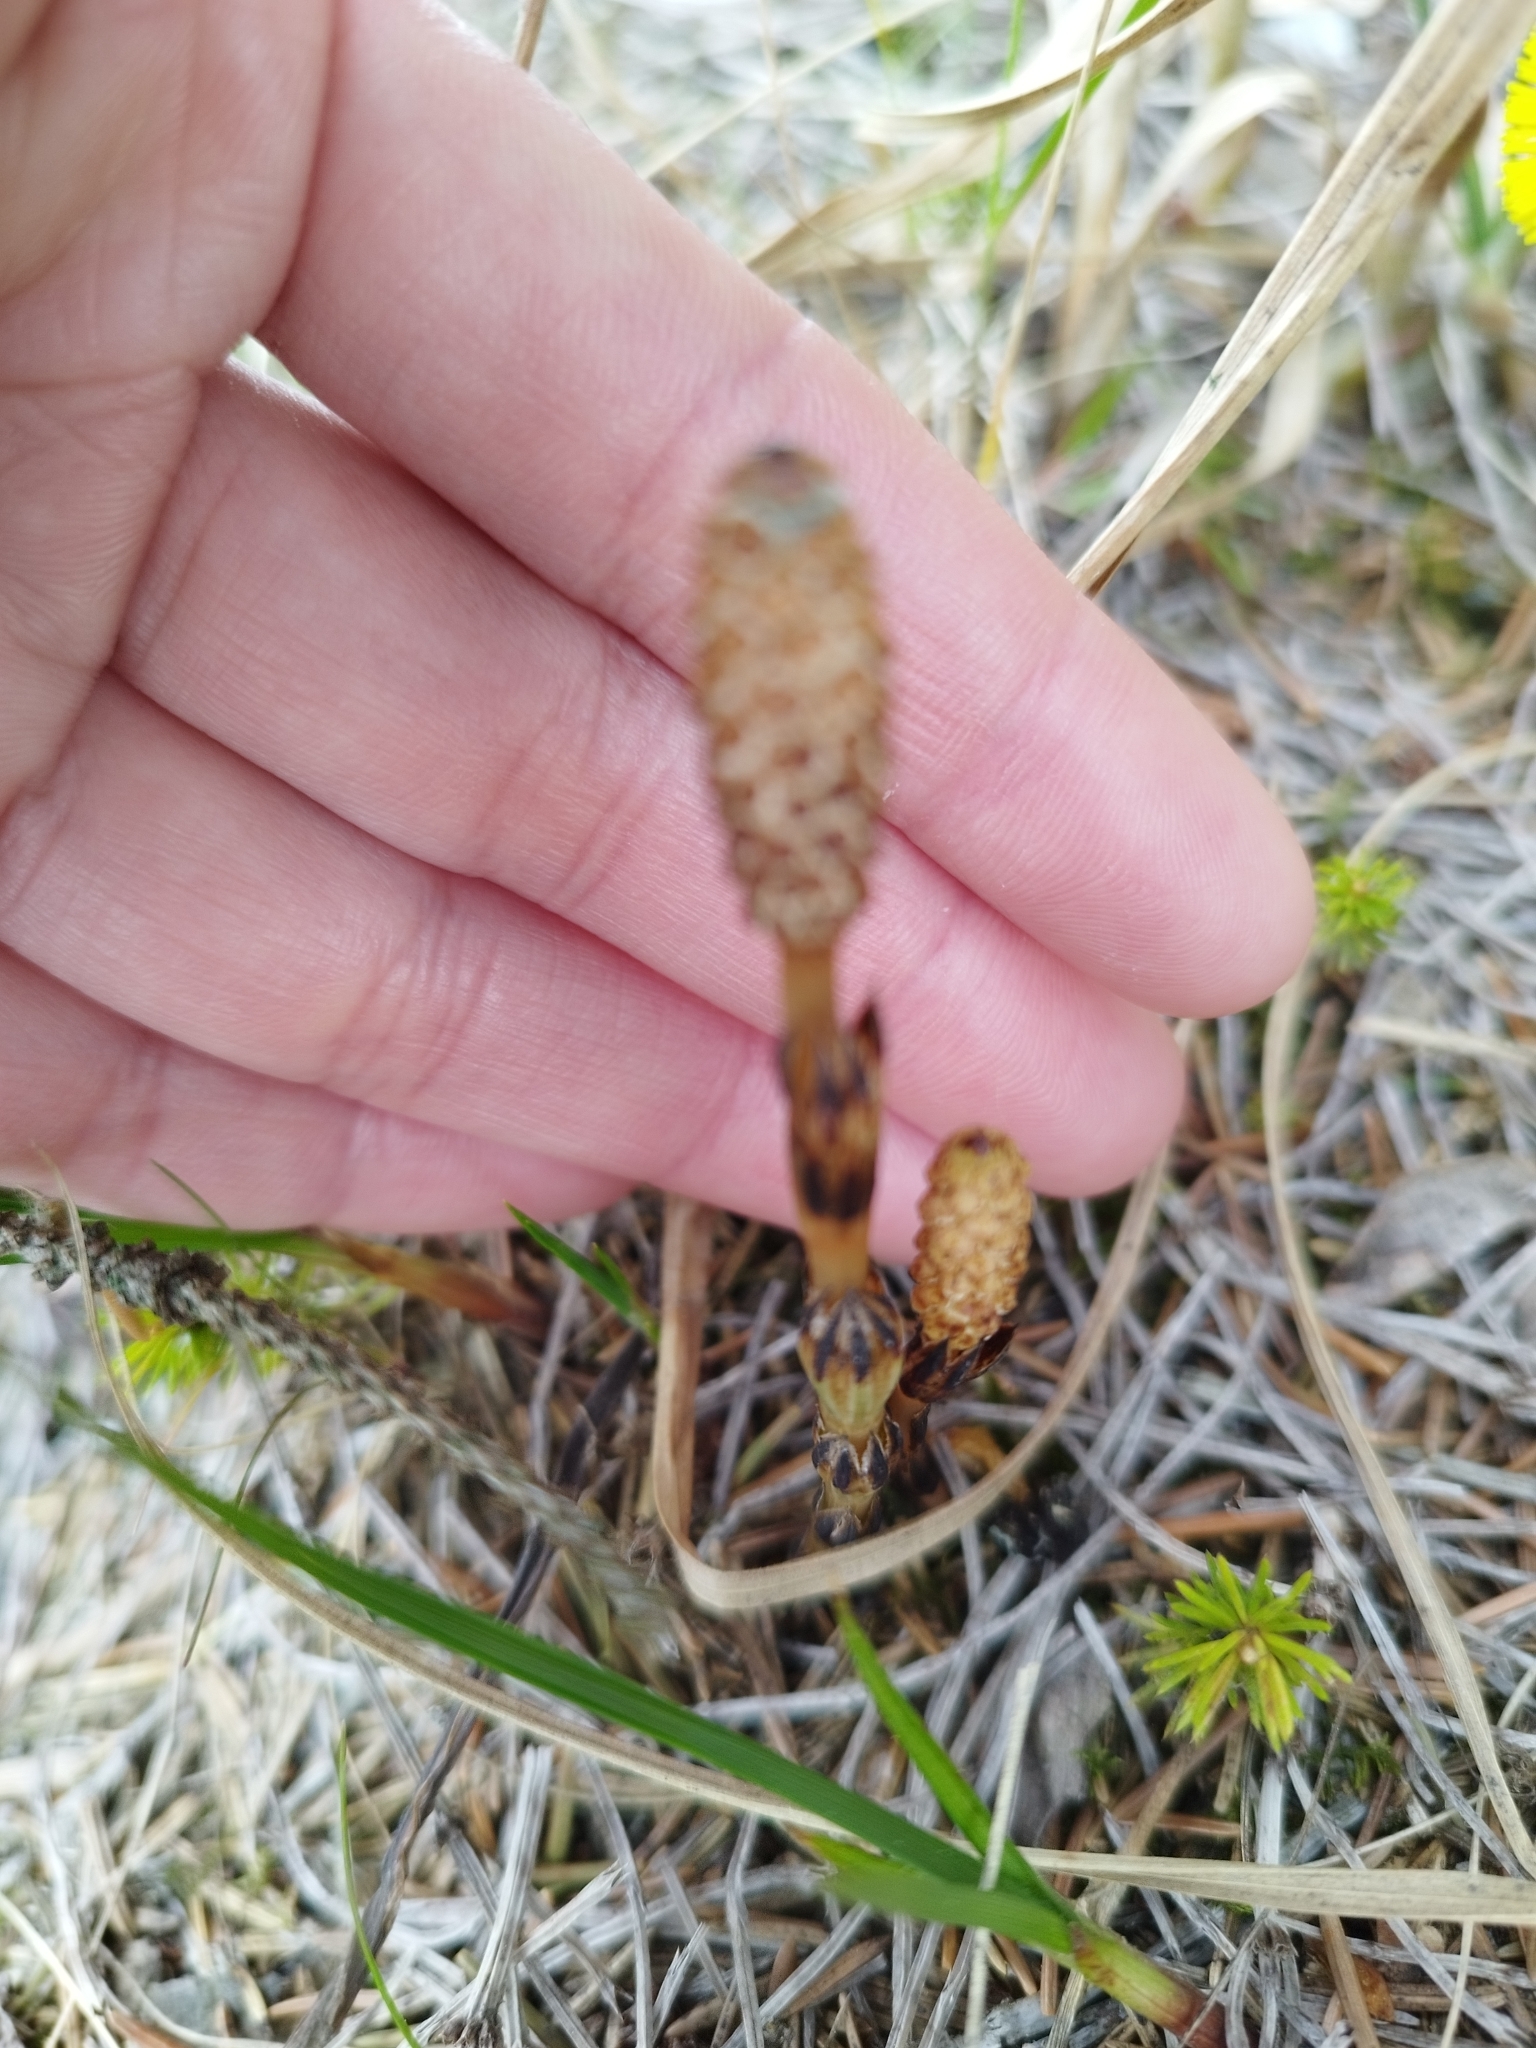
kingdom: Plantae
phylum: Tracheophyta
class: Polypodiopsida
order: Equisetales
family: Equisetaceae
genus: Equisetum
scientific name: Equisetum arvense
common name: Field horsetail
